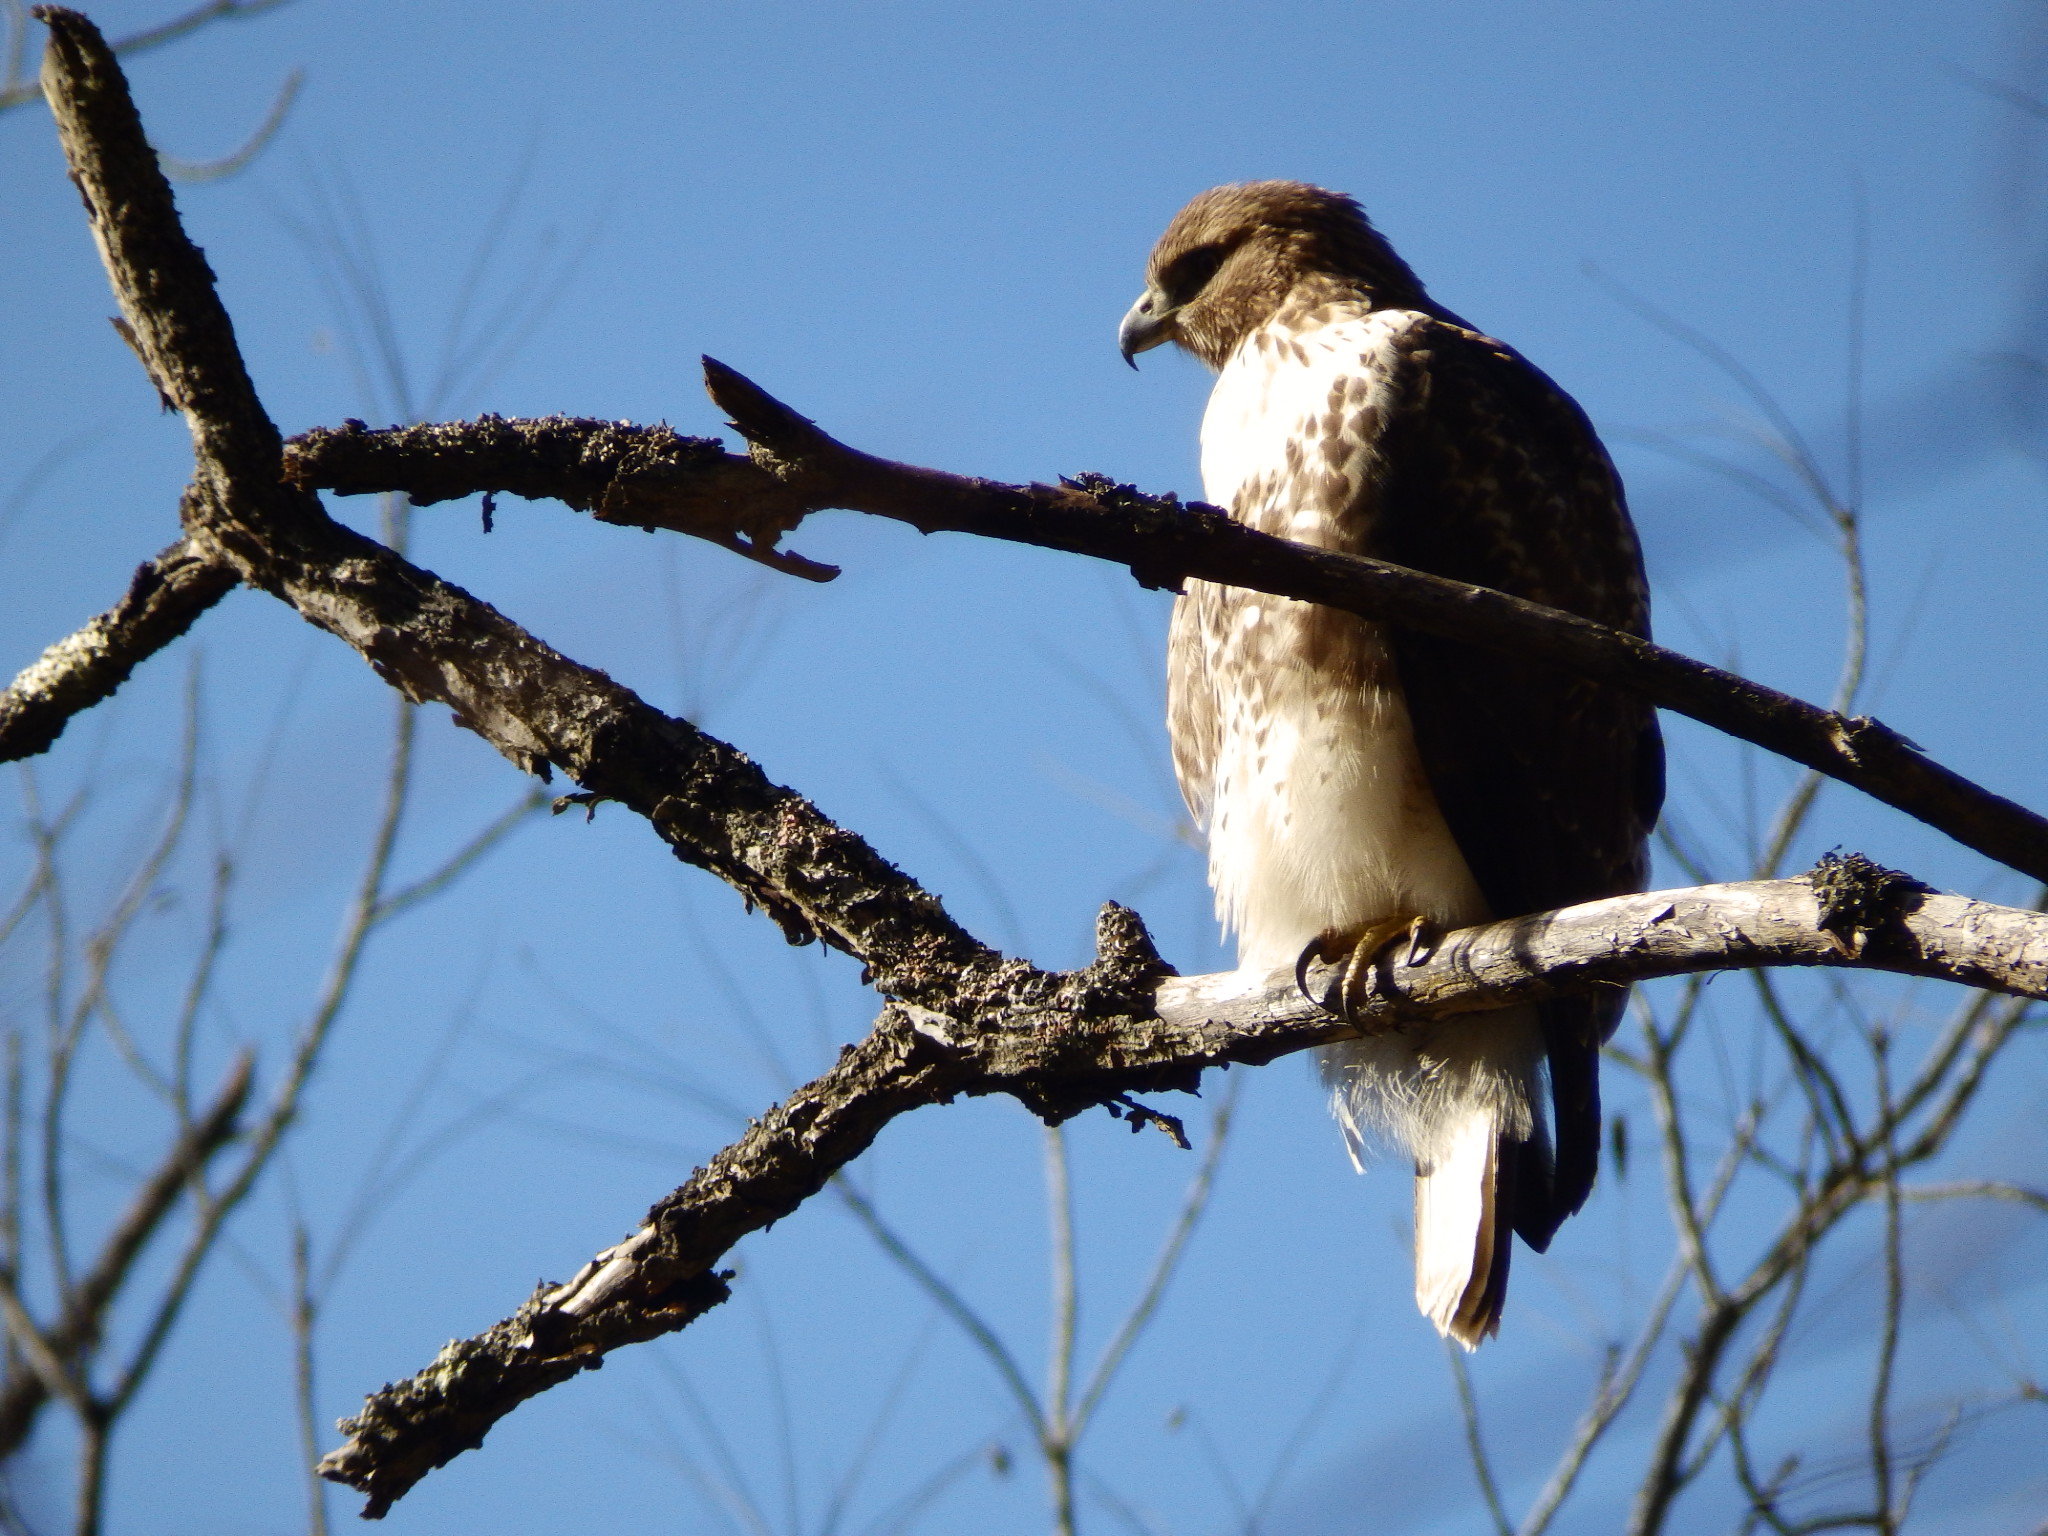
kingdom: Animalia
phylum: Chordata
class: Aves
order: Accipitriformes
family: Accipitridae
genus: Buteo
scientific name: Buteo jamaicensis
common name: Red-tailed hawk
